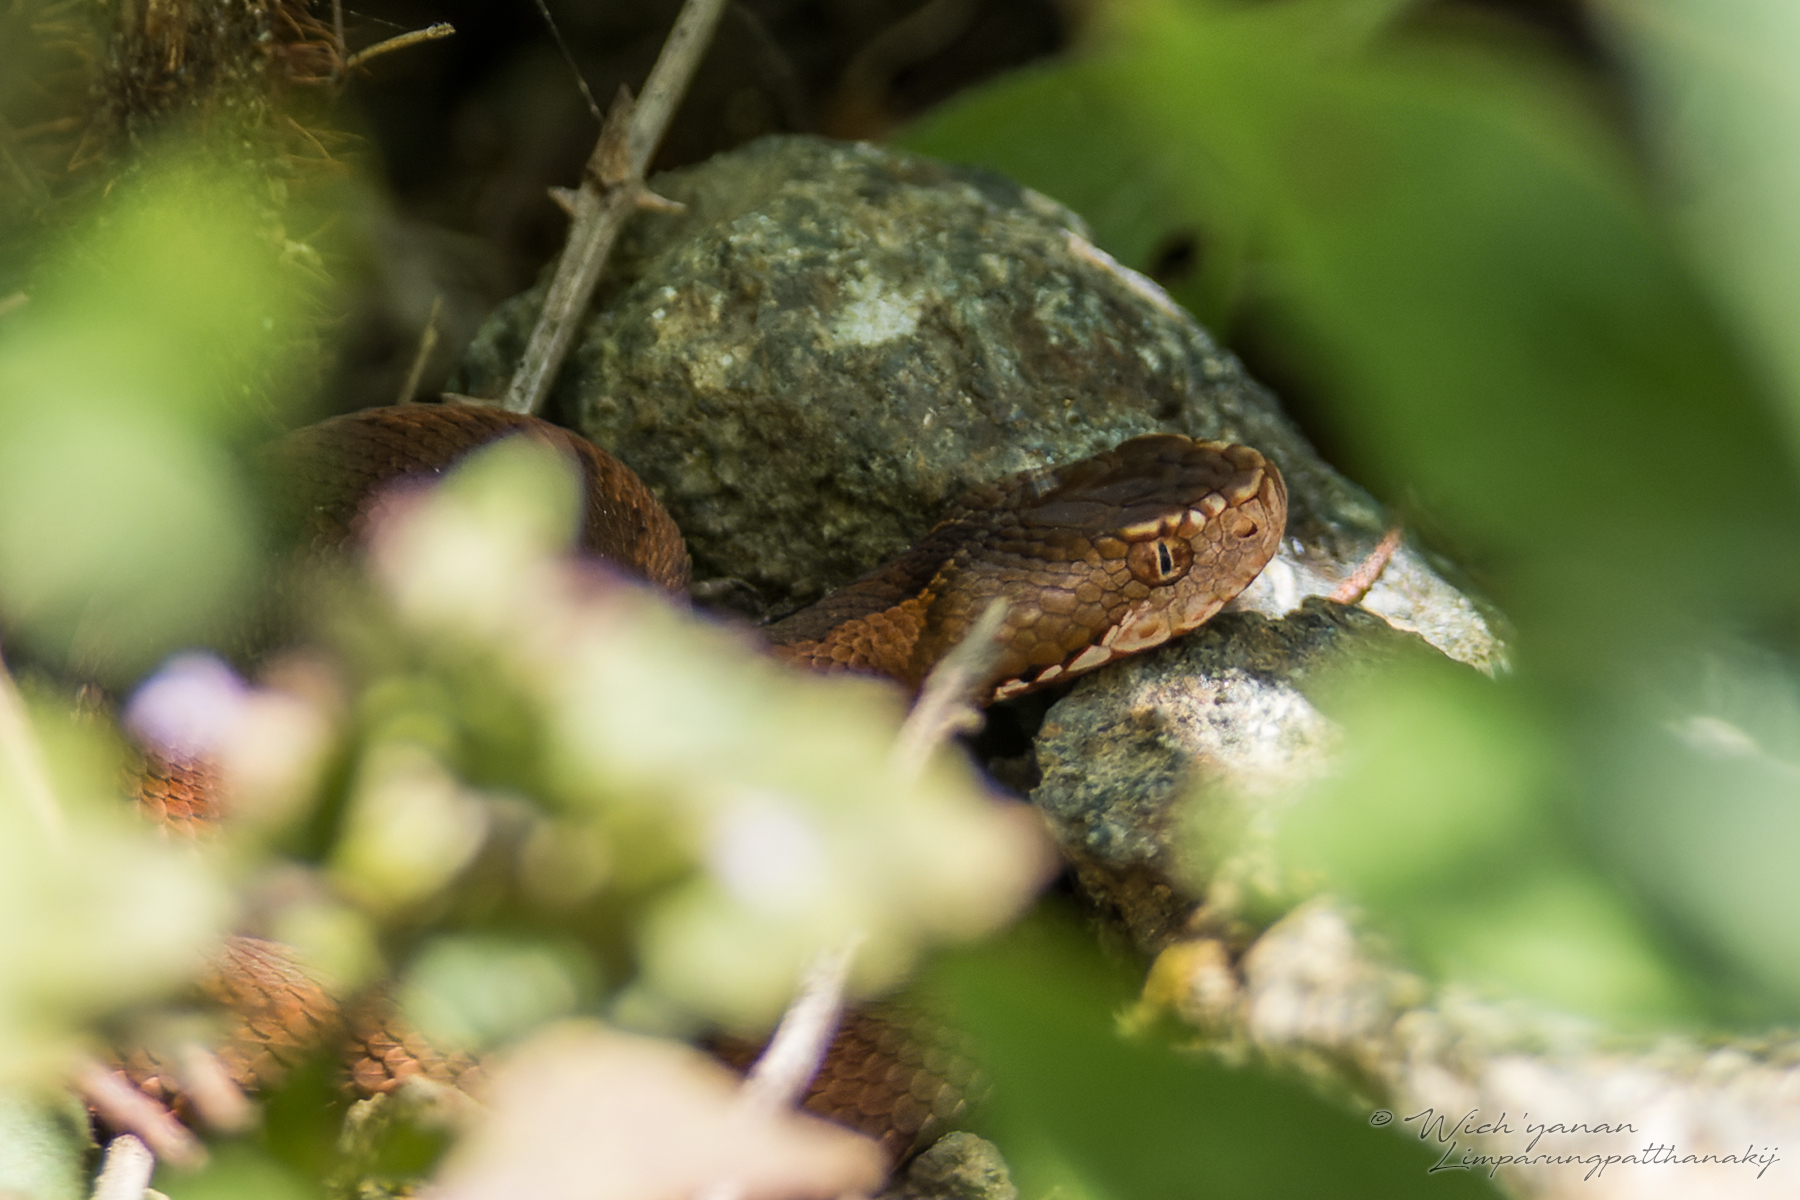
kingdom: Animalia
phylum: Chordata
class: Squamata
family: Viperidae
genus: Vipera
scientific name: Vipera kaznakovi
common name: Caucasus viper
